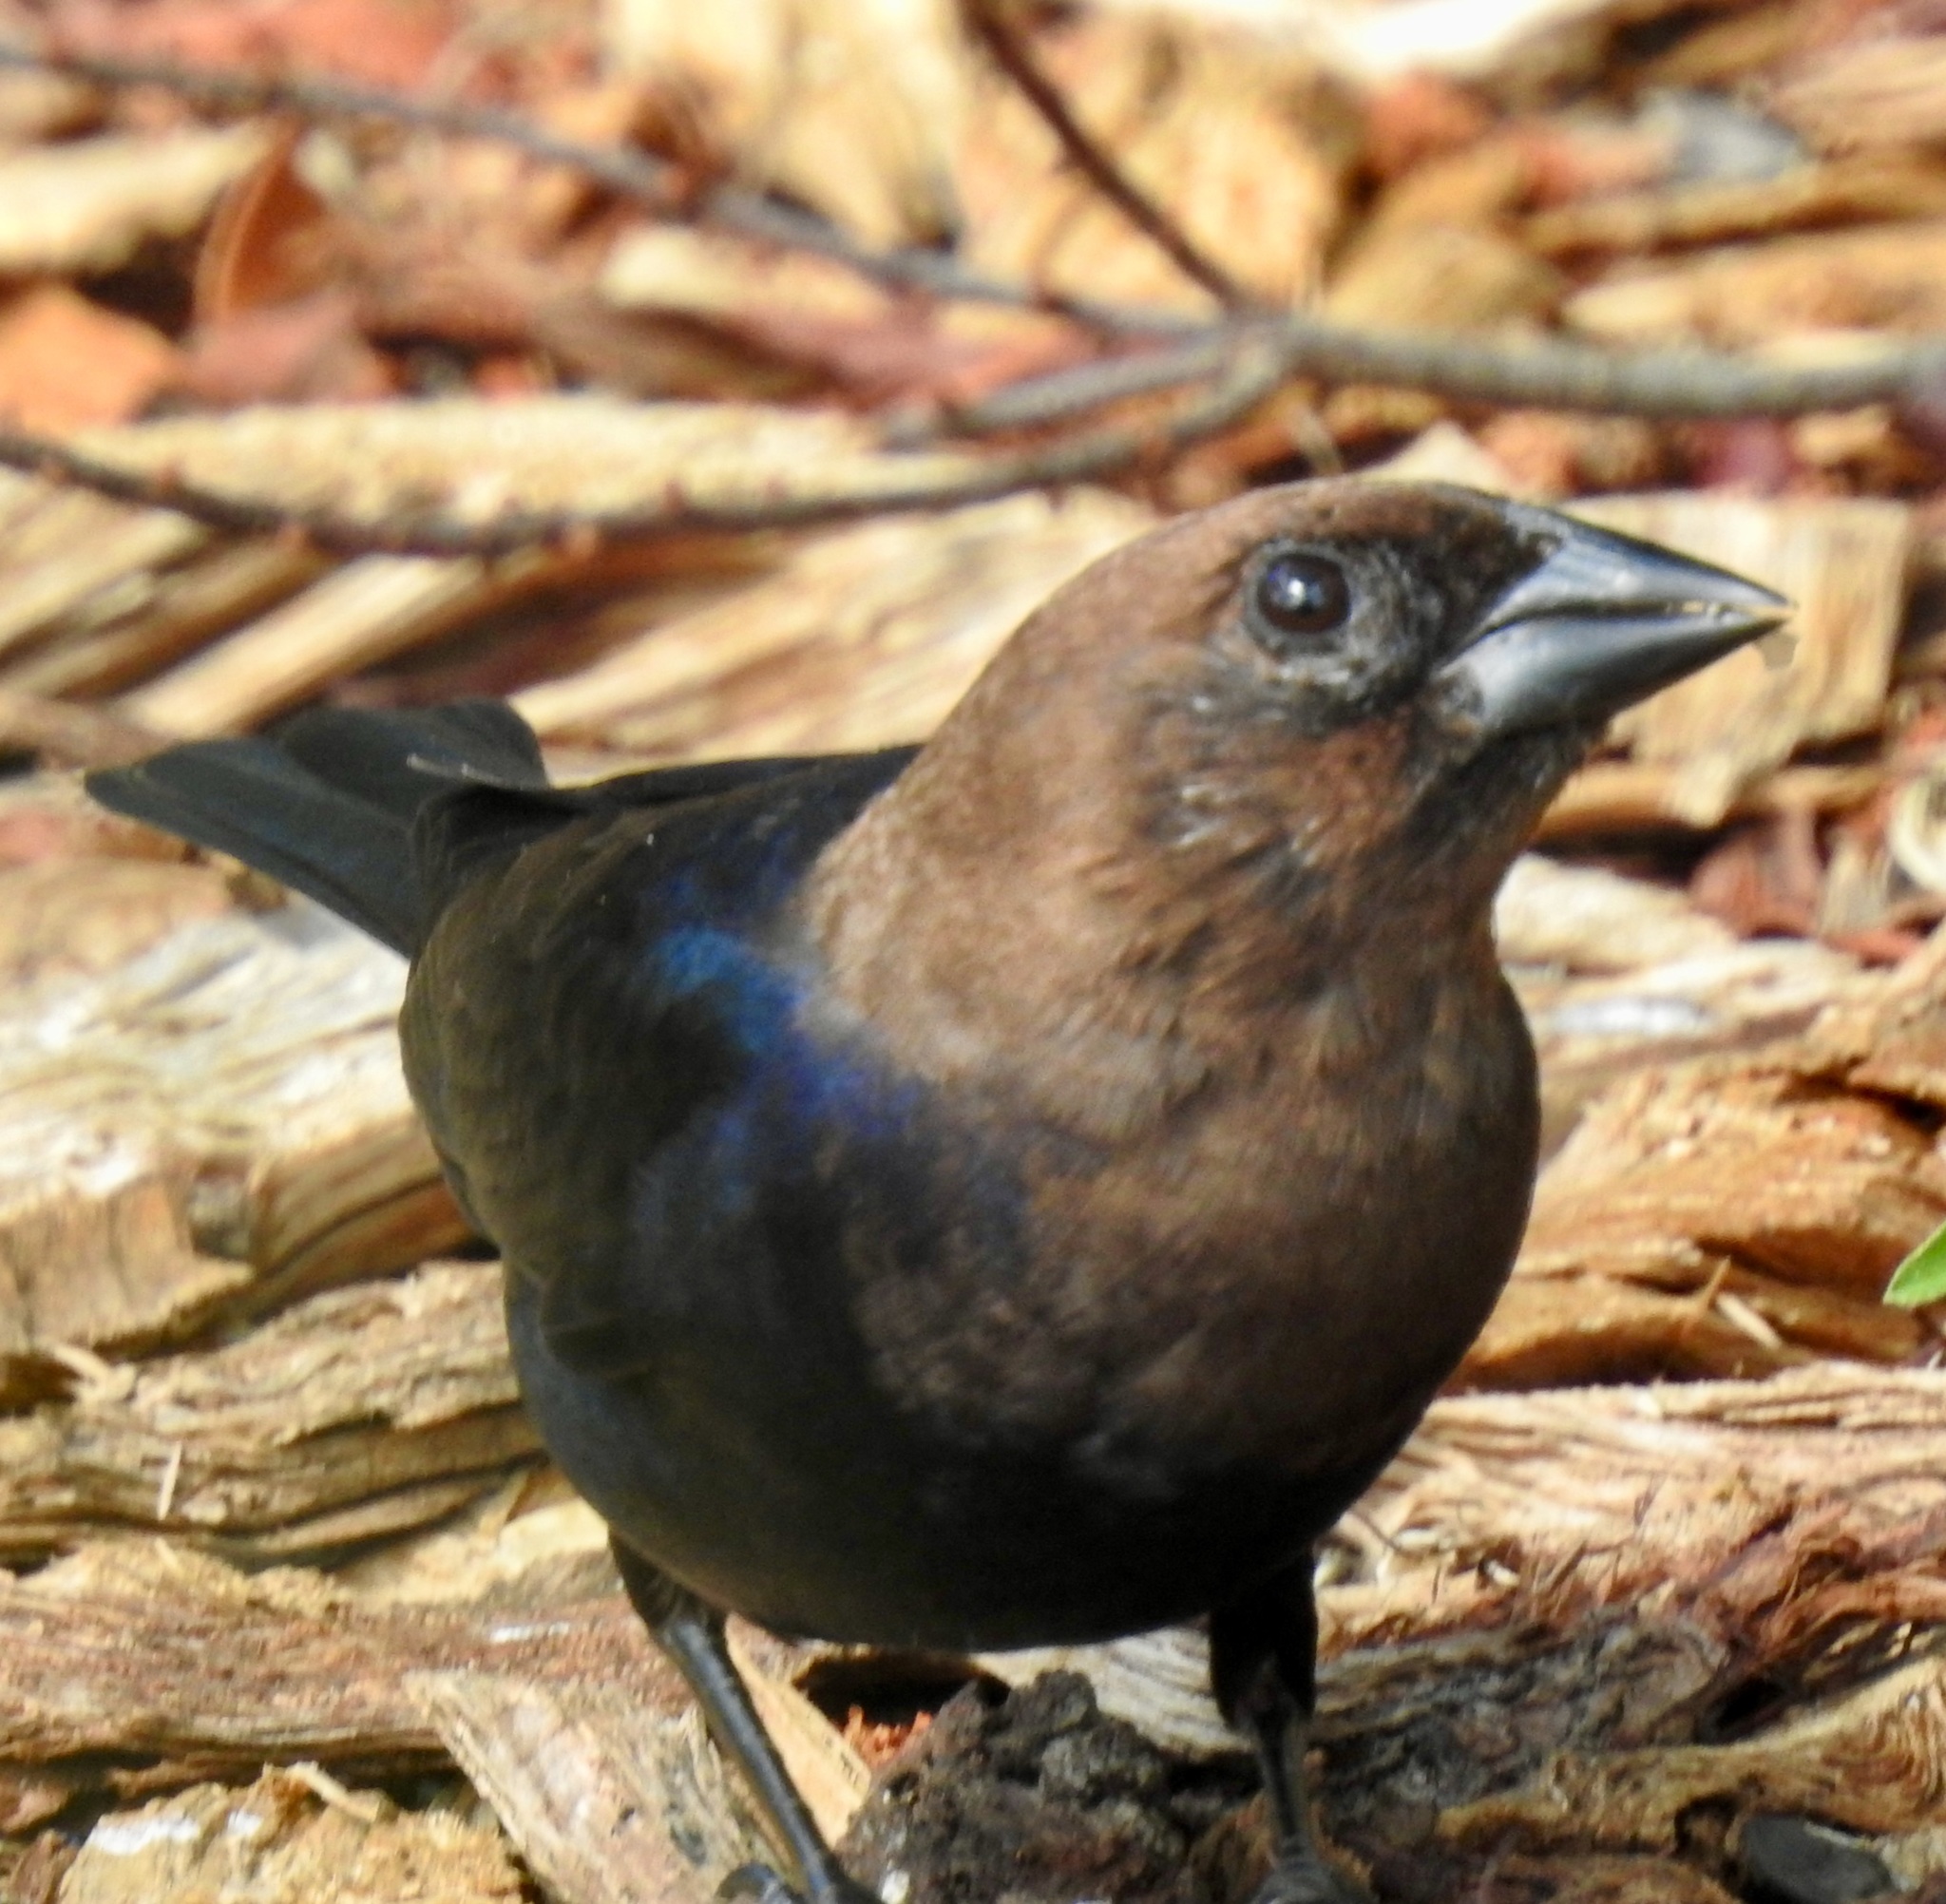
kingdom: Animalia
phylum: Chordata
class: Aves
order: Passeriformes
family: Icteridae
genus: Molothrus
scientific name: Molothrus ater
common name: Brown-headed cowbird
